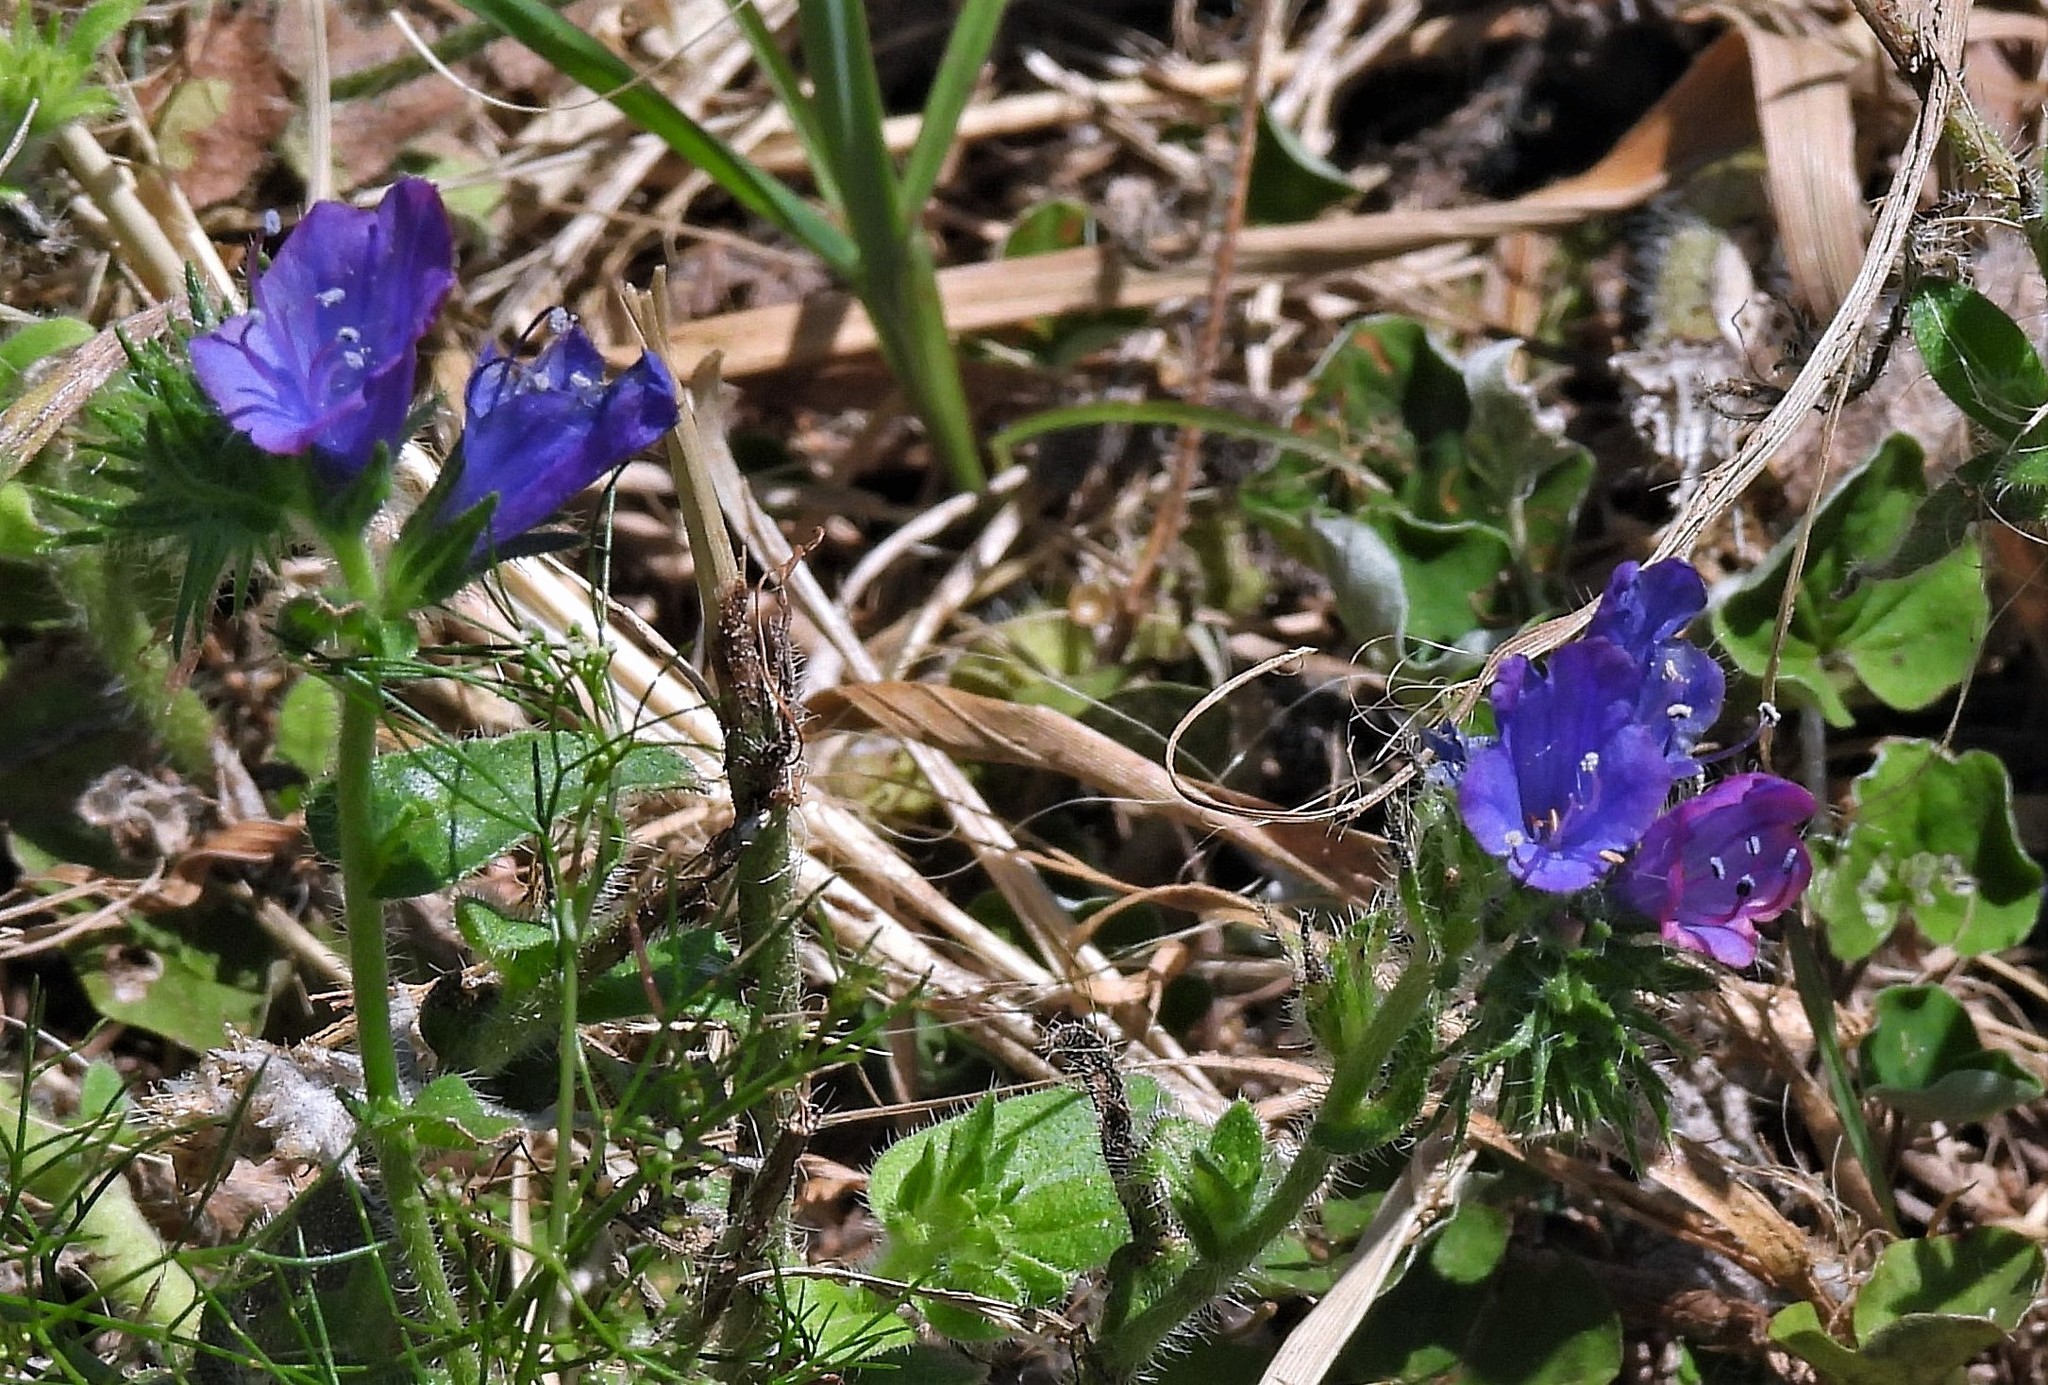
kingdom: Plantae
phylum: Tracheophyta
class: Magnoliopsida
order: Boraginales
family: Boraginaceae
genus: Echium
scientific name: Echium plantagineum
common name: Purple viper's-bugloss
